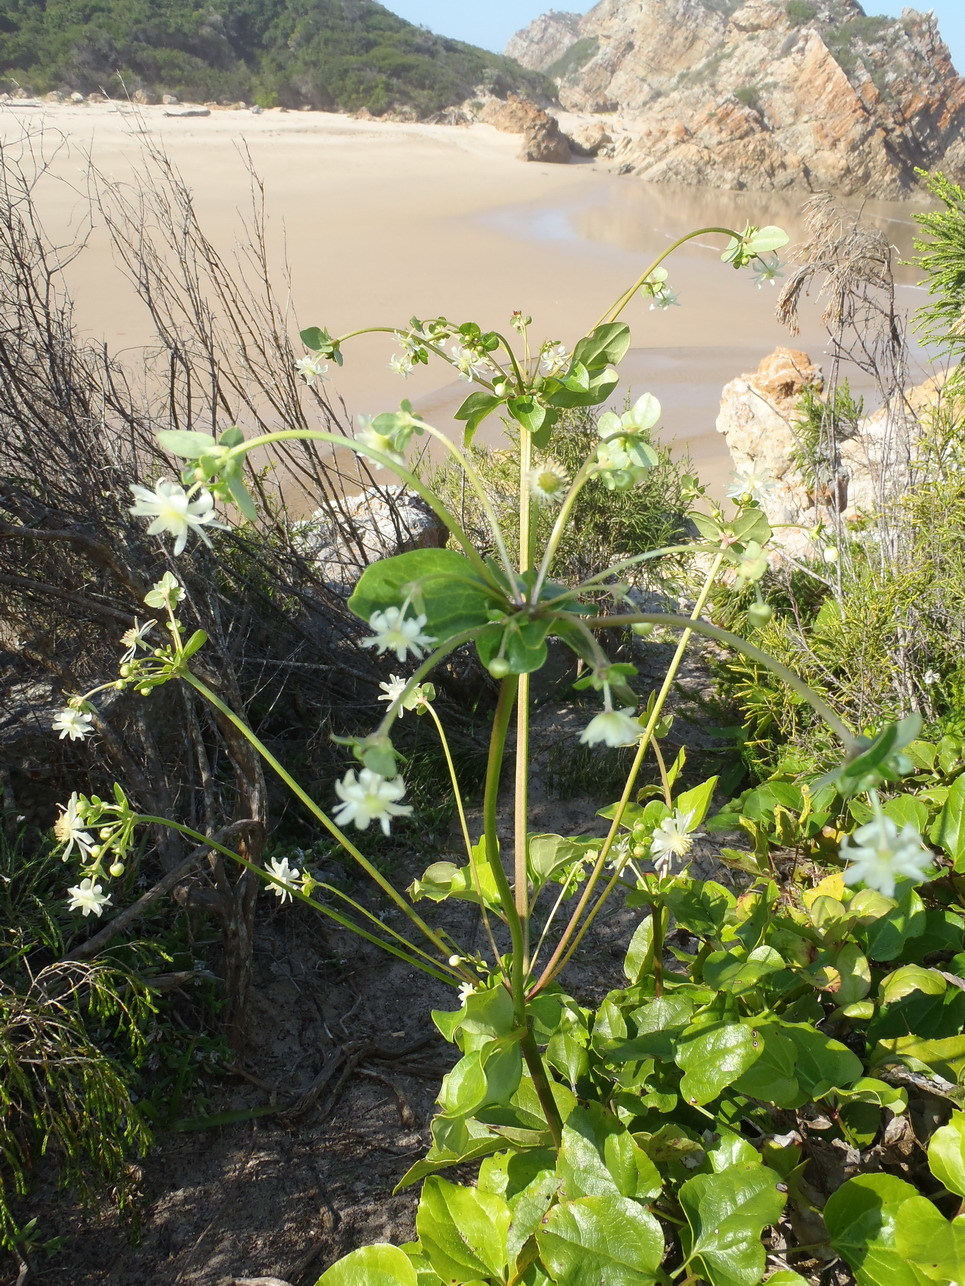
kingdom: Plantae
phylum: Tracheophyta
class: Magnoliopsida
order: Ranunculales
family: Ranunculaceae
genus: Knowltonia
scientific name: Knowltonia vesicatoria
